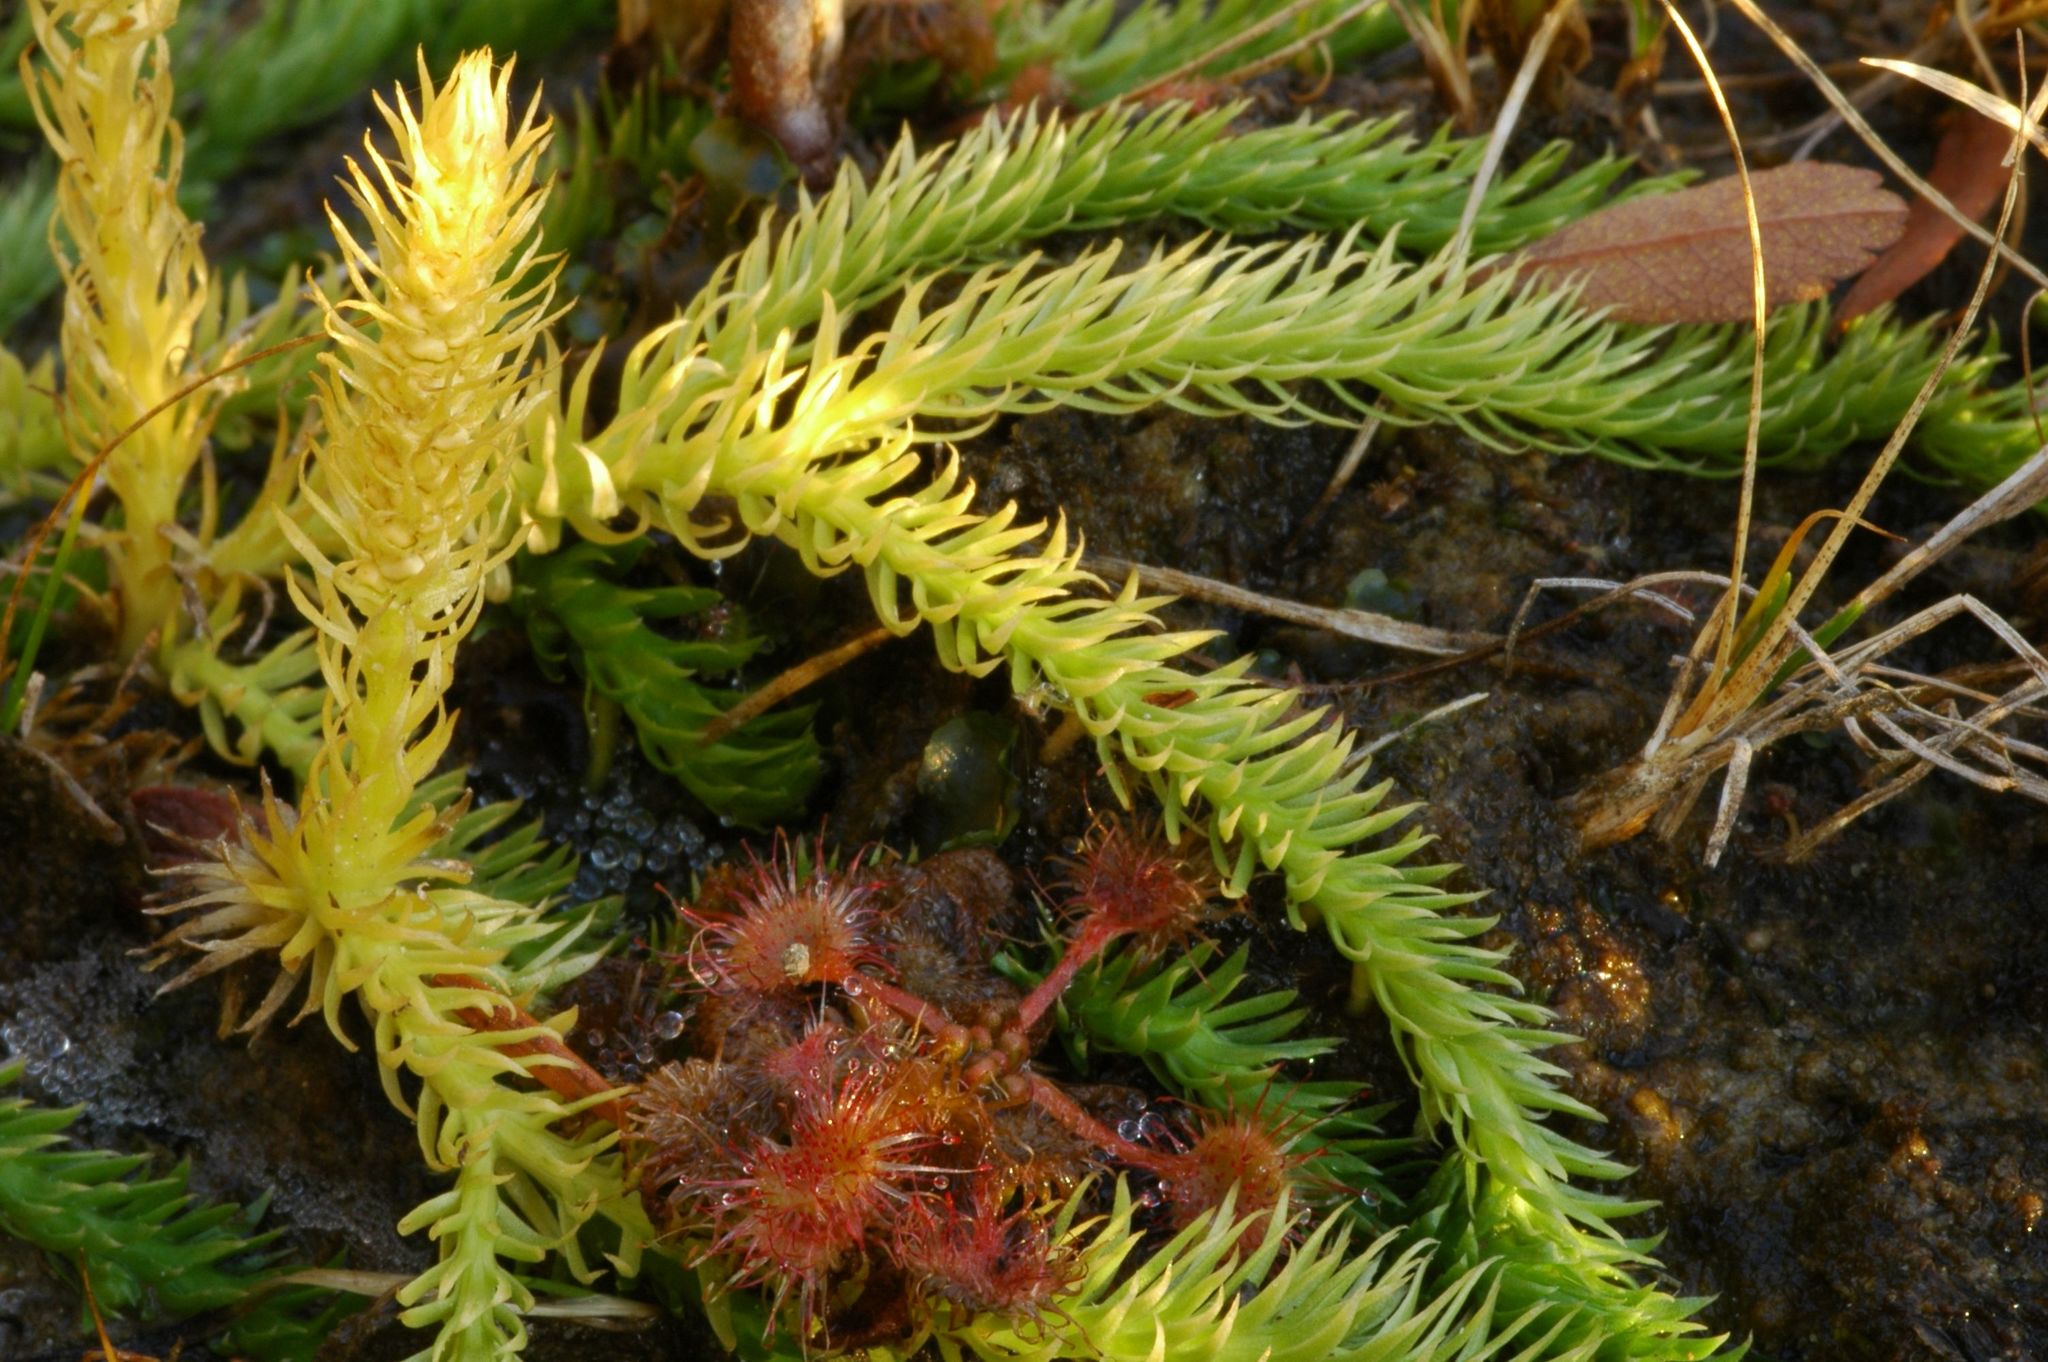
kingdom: Plantae
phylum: Tracheophyta
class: Magnoliopsida
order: Caryophyllales
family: Droseraceae
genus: Drosera
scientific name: Drosera rotundifolia
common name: Round-leaved sundew
